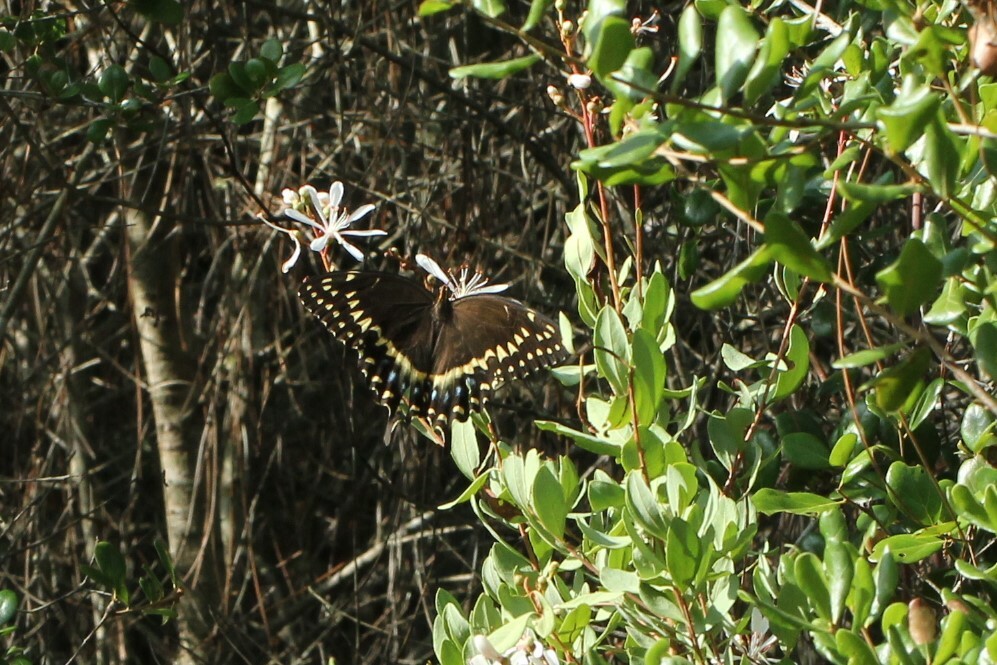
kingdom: Animalia
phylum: Arthropoda
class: Insecta
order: Lepidoptera
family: Papilionidae
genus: Papilio
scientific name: Papilio palamedes
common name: Palamedes swallowtail
